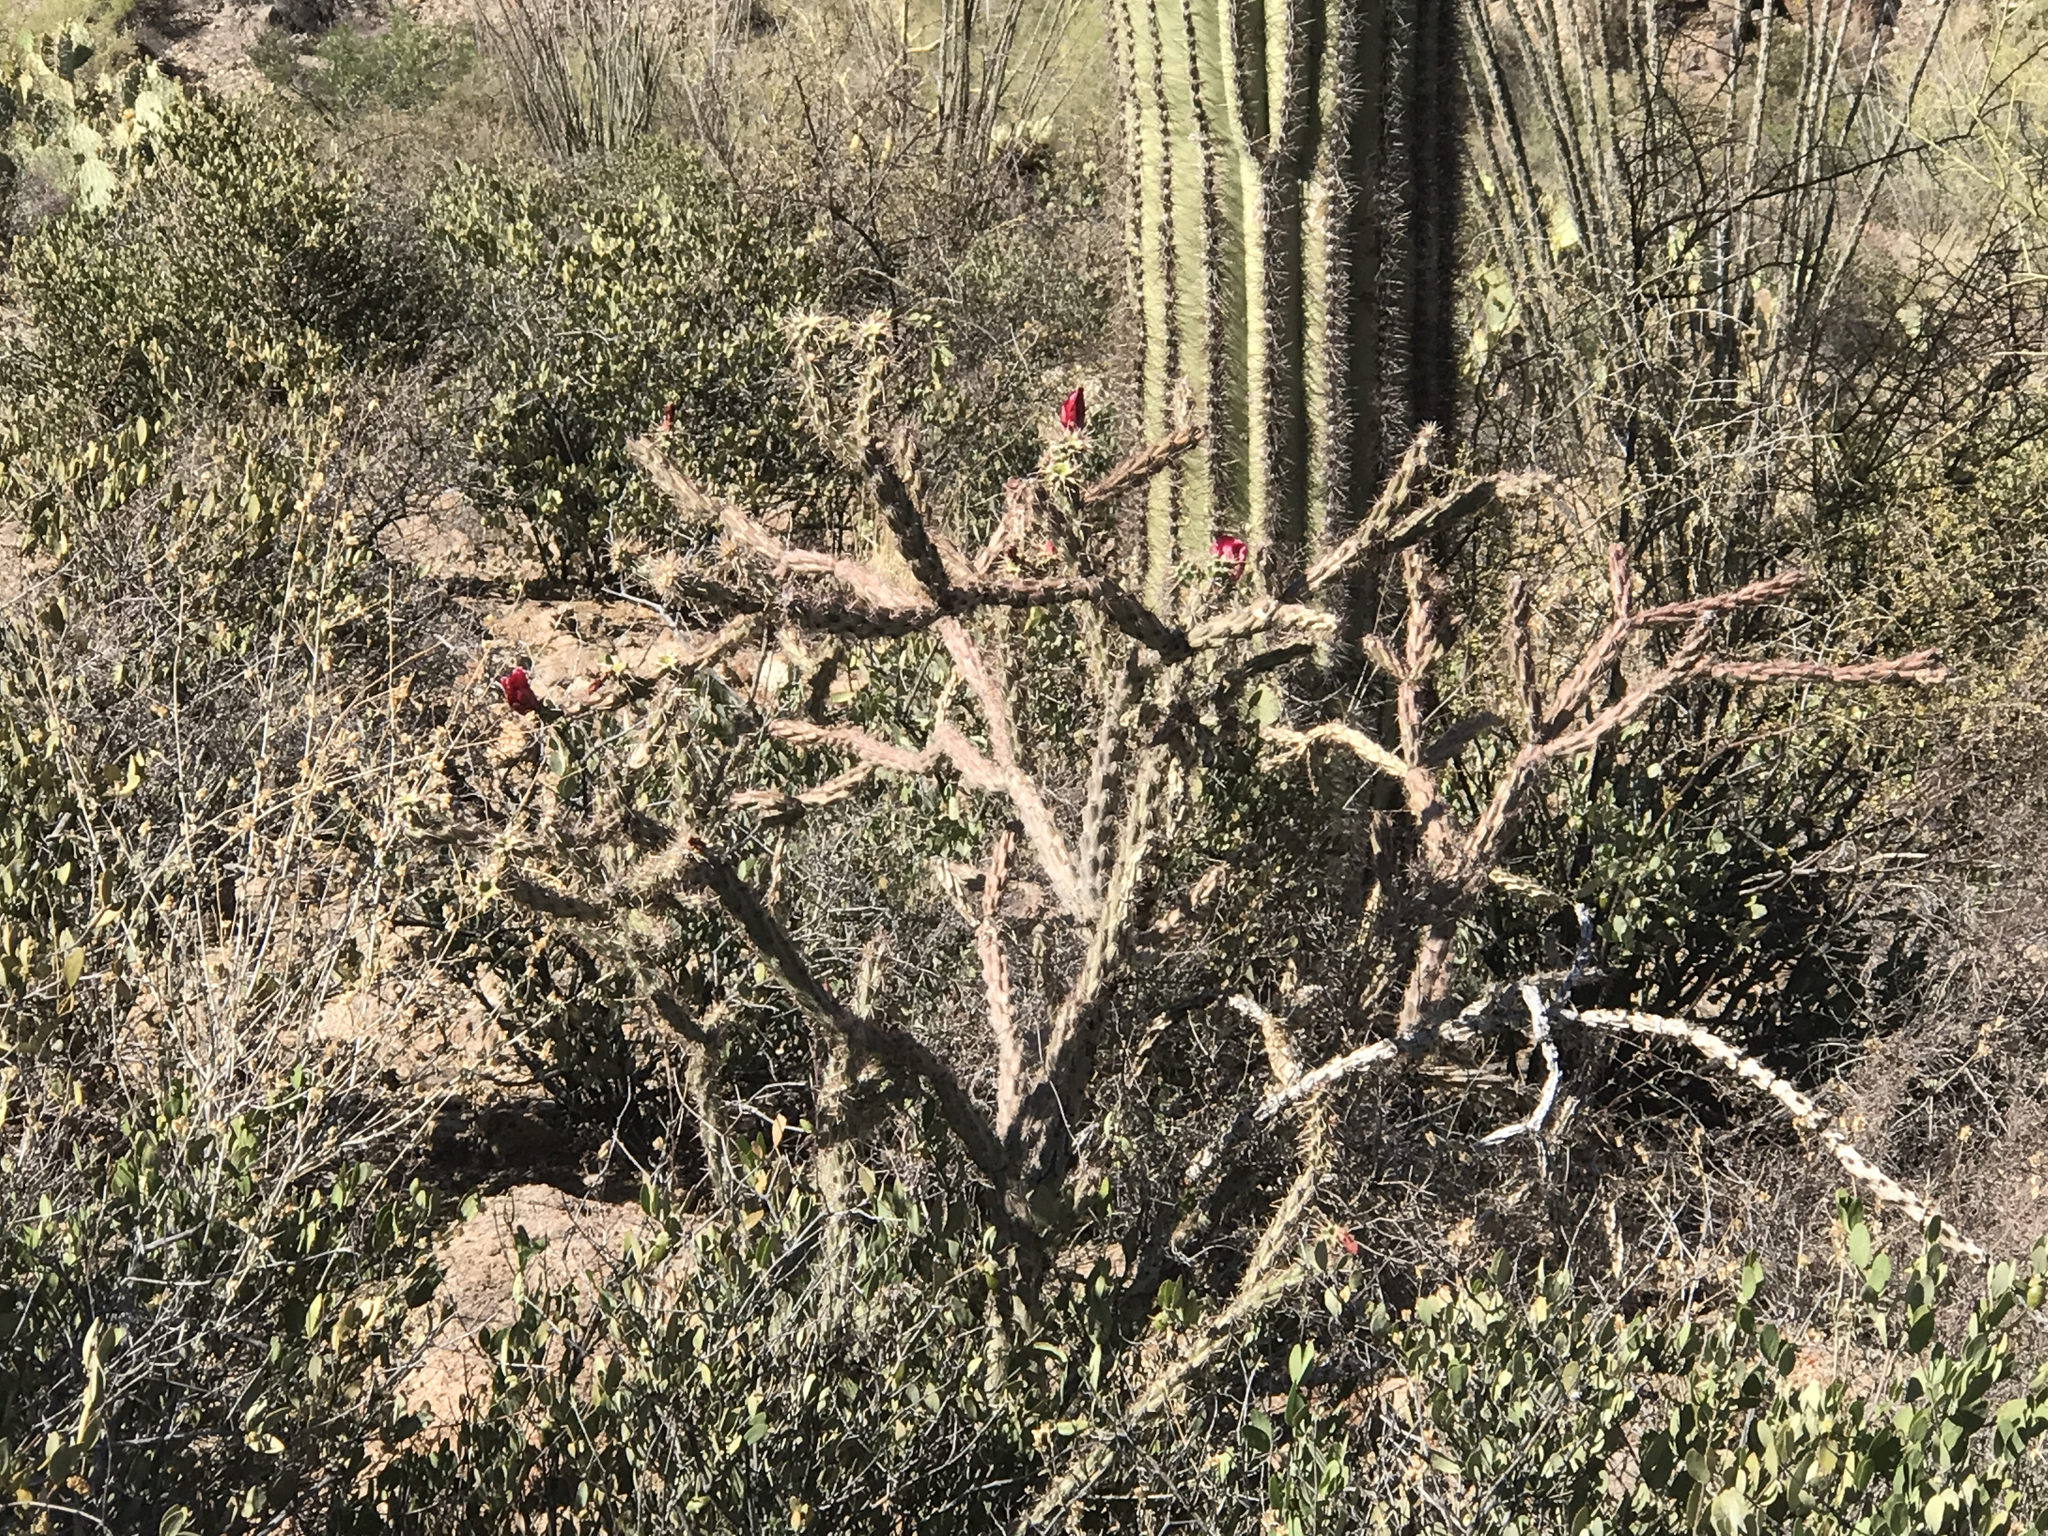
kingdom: Plantae
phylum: Tracheophyta
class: Magnoliopsida
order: Caryophyllales
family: Cactaceae
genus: Cylindropuntia
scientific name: Cylindropuntia thurberi
